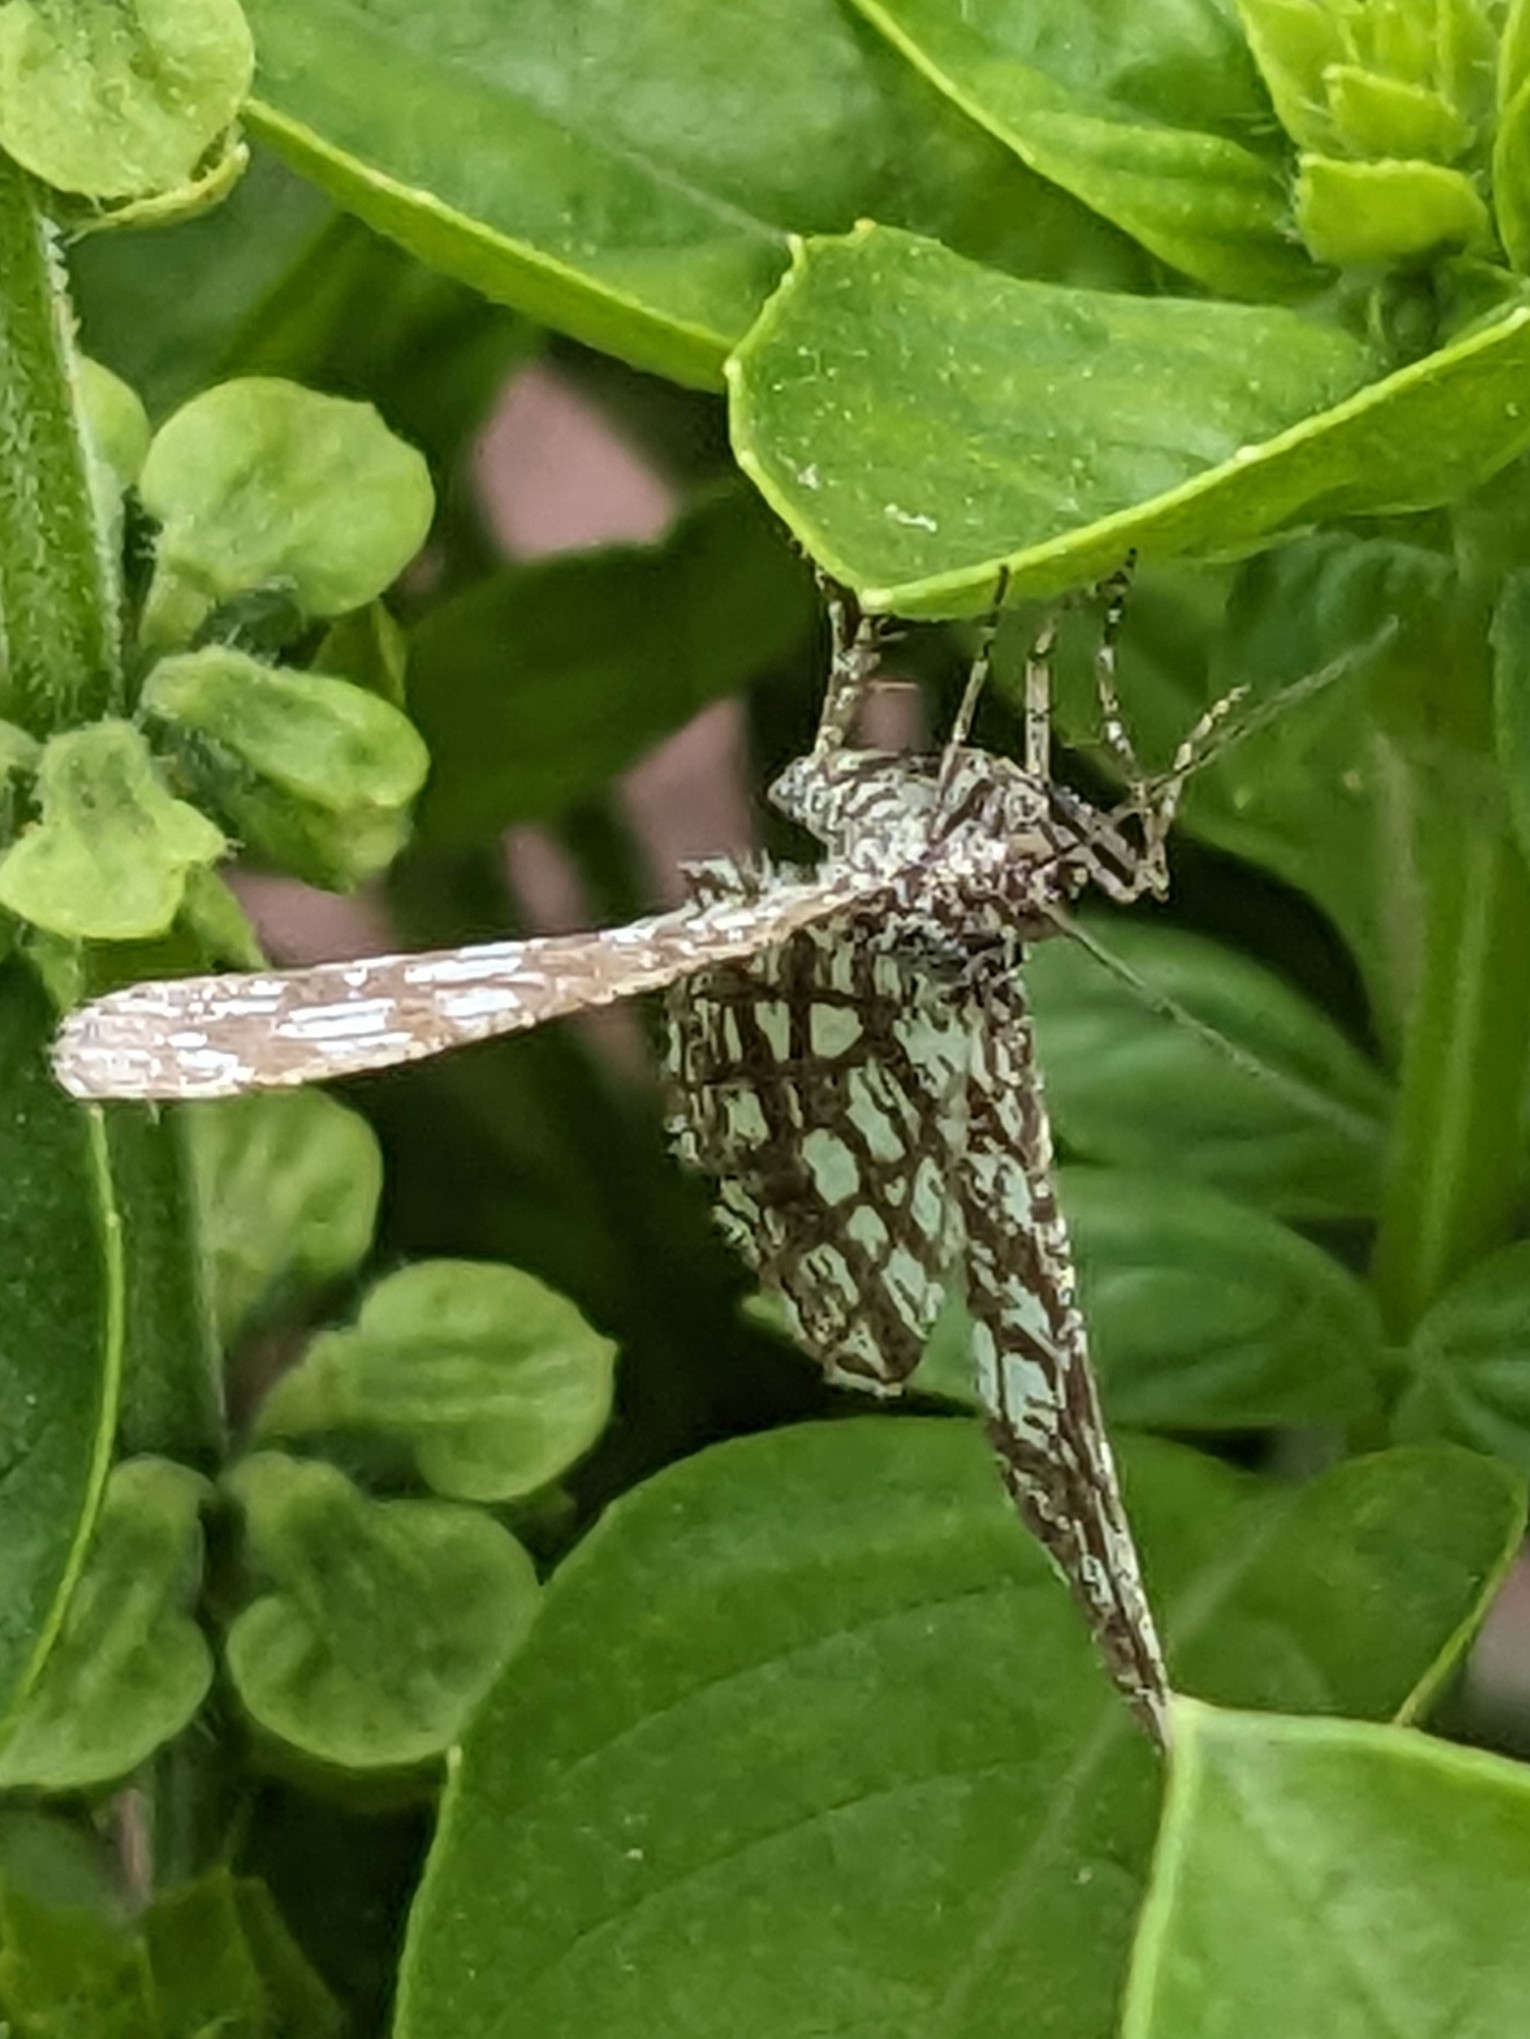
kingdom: Animalia
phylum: Arthropoda
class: Insecta
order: Lepidoptera
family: Geometridae
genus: Chiasmia
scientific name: Chiasmia clathrata
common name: Latticed heath
